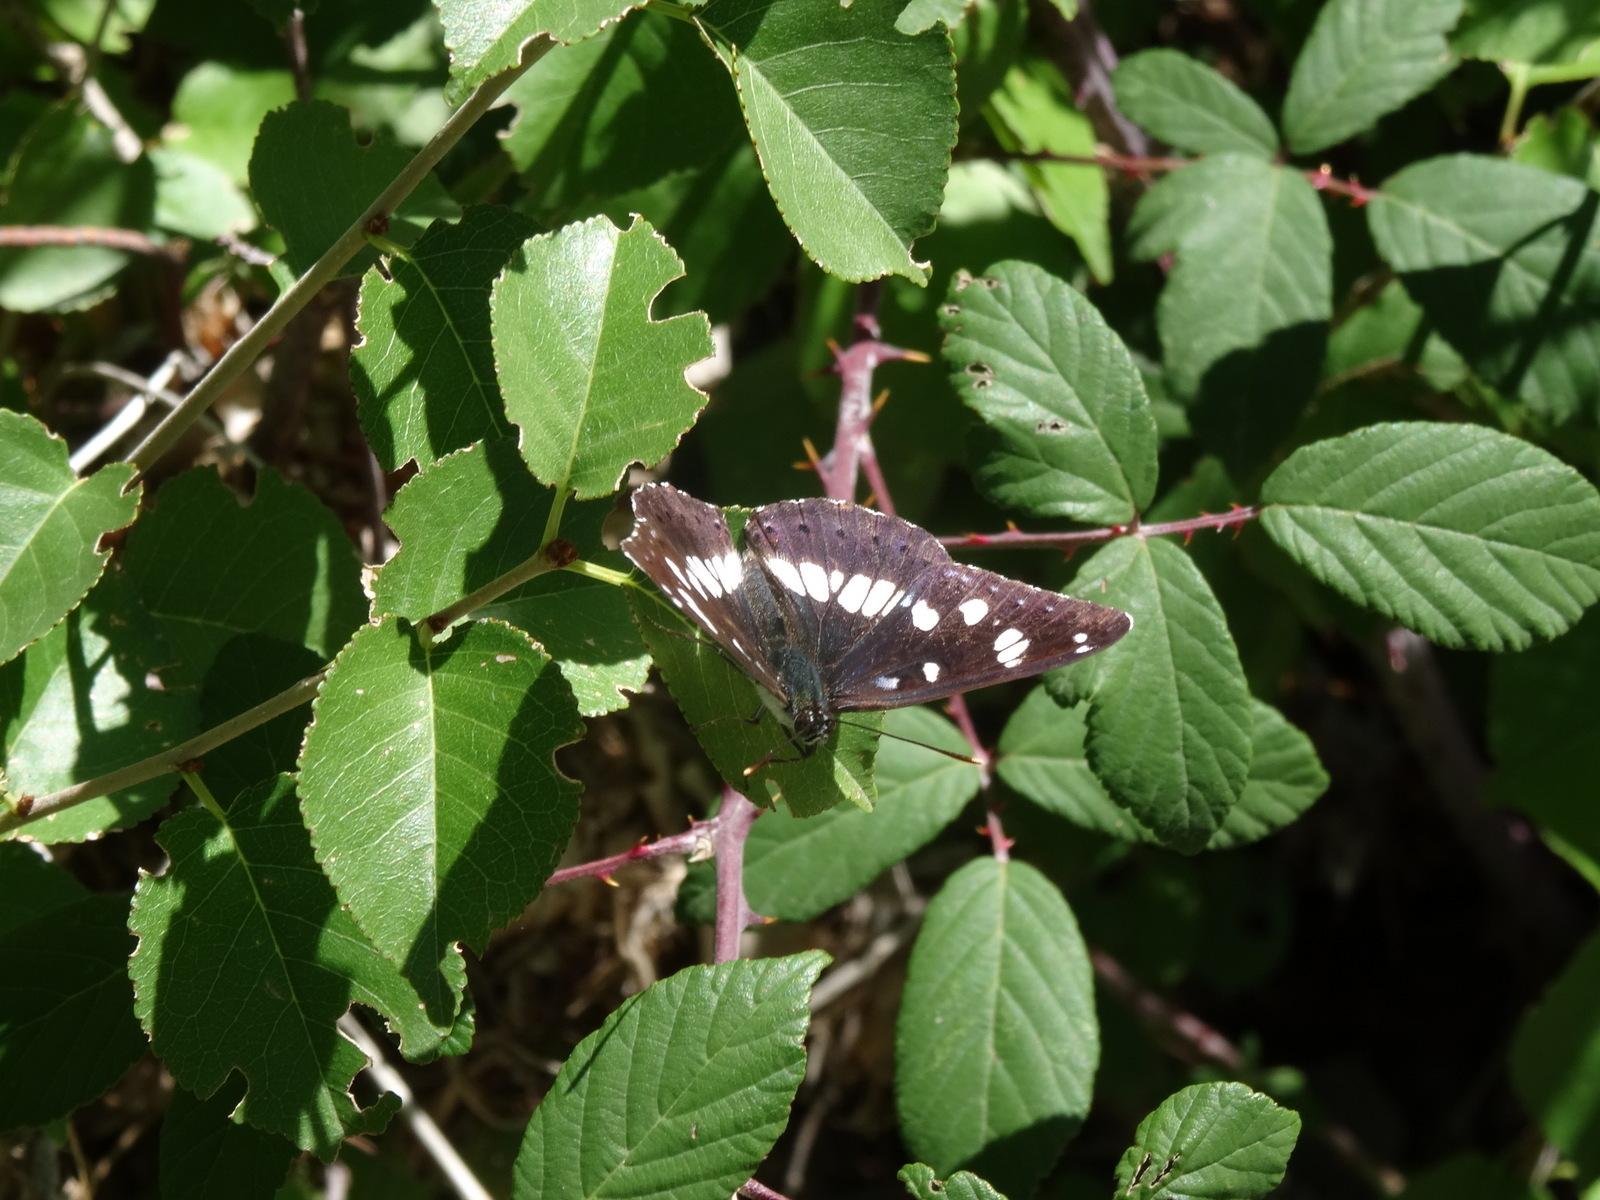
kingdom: Animalia
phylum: Arthropoda
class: Insecta
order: Lepidoptera
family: Nymphalidae
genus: Limenitis
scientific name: Limenitis reducta
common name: Southern white admiral
